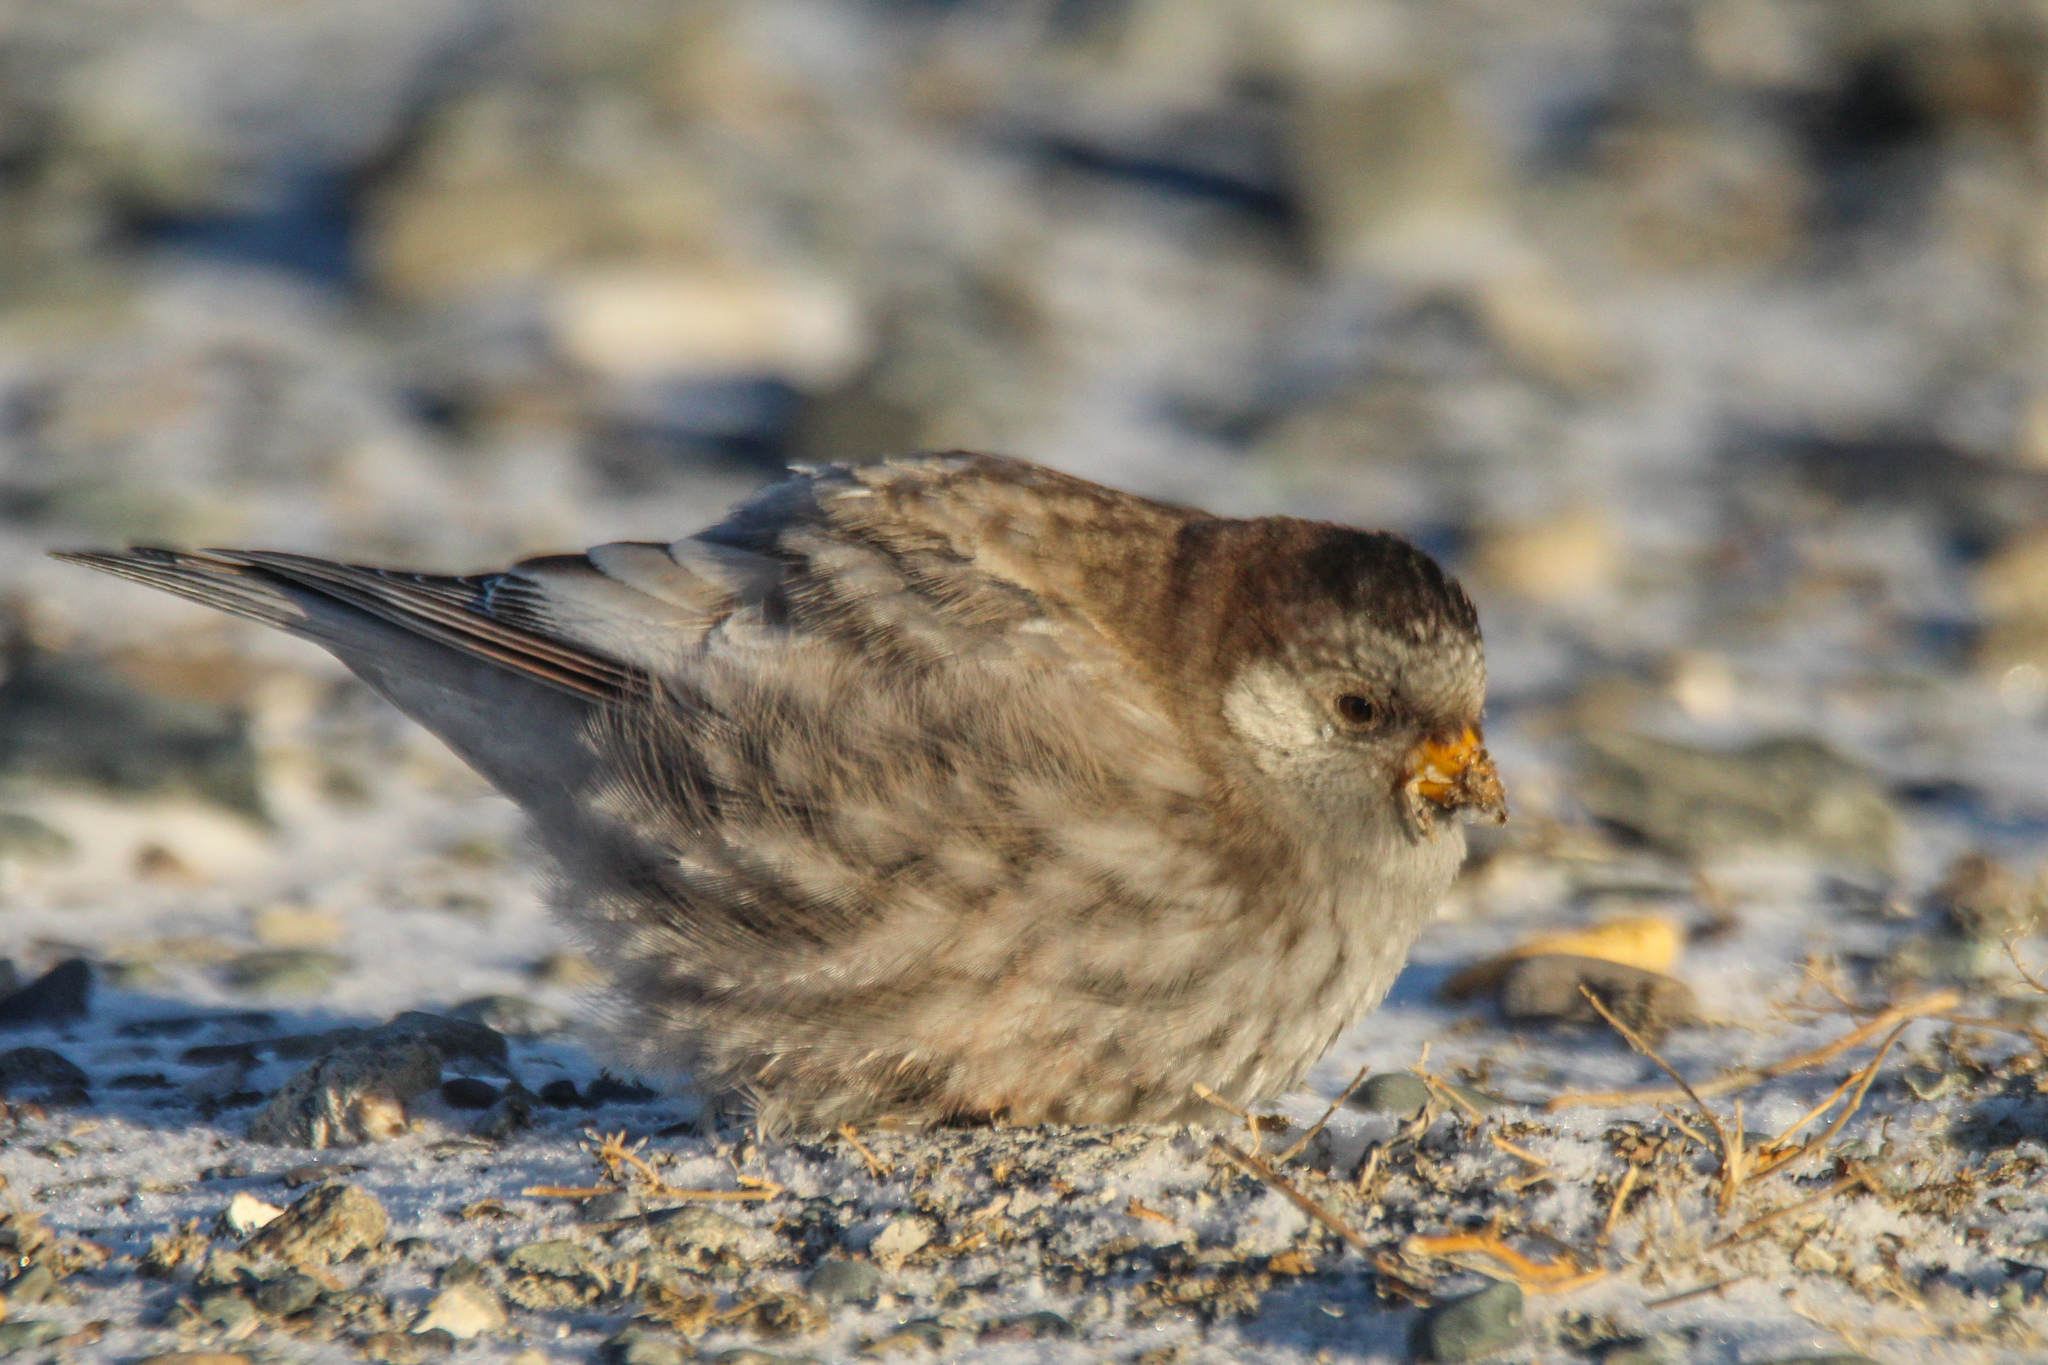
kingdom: Animalia
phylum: Chordata
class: Aves
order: Passeriformes
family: Fringillidae
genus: Leucosticte
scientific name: Leucosticte brandti
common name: Brandt's mountain finch
